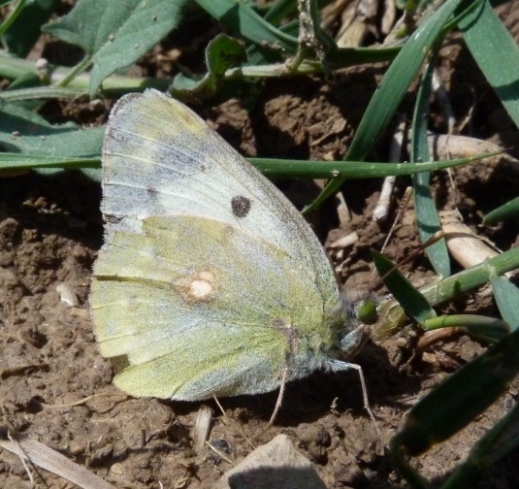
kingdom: Animalia
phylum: Arthropoda
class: Insecta
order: Lepidoptera
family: Pieridae
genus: Colias
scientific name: Colias croceus
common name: Clouded yellow
